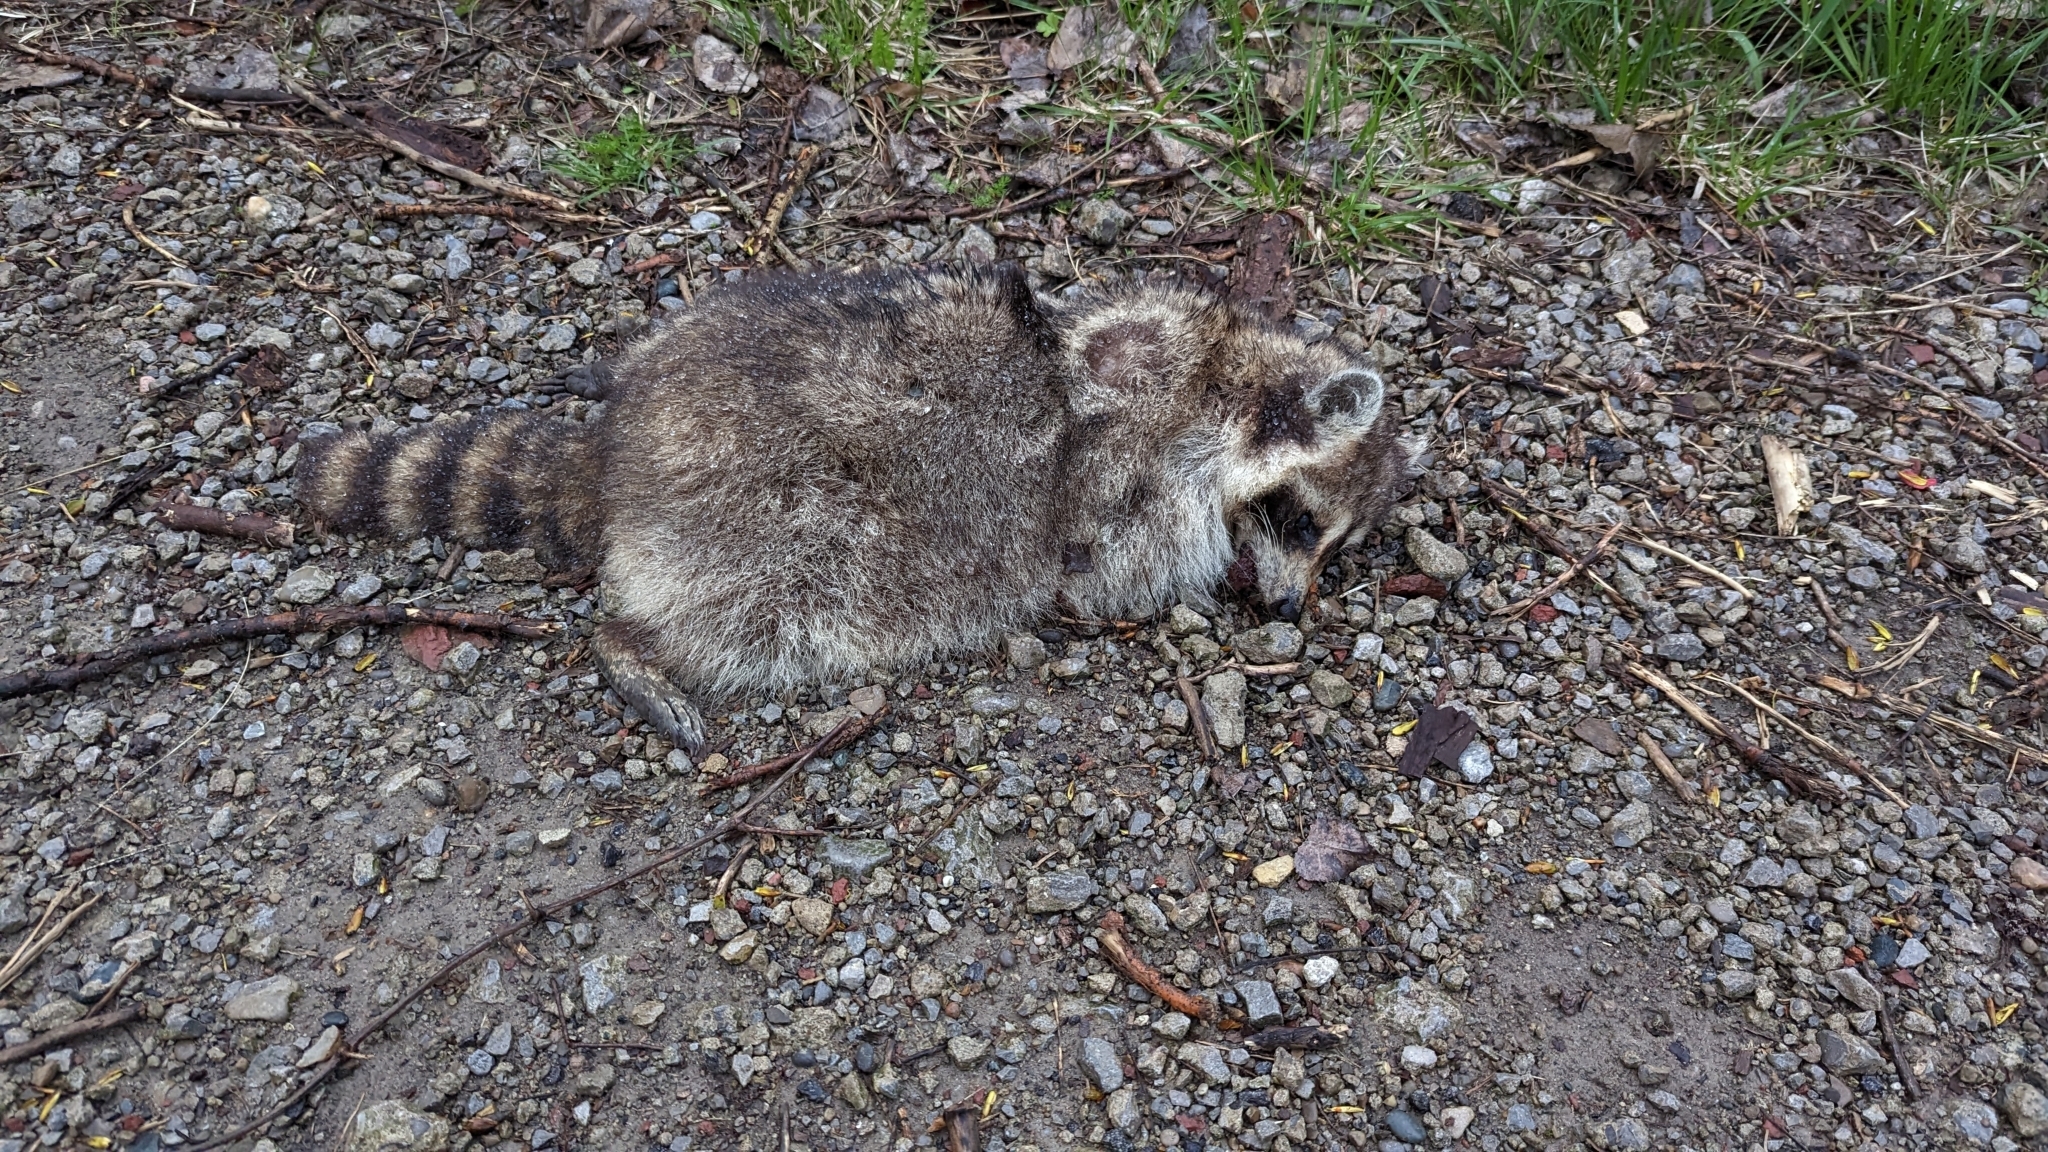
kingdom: Animalia
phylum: Chordata
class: Mammalia
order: Carnivora
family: Procyonidae
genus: Procyon
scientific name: Procyon lotor
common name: Raccoon
